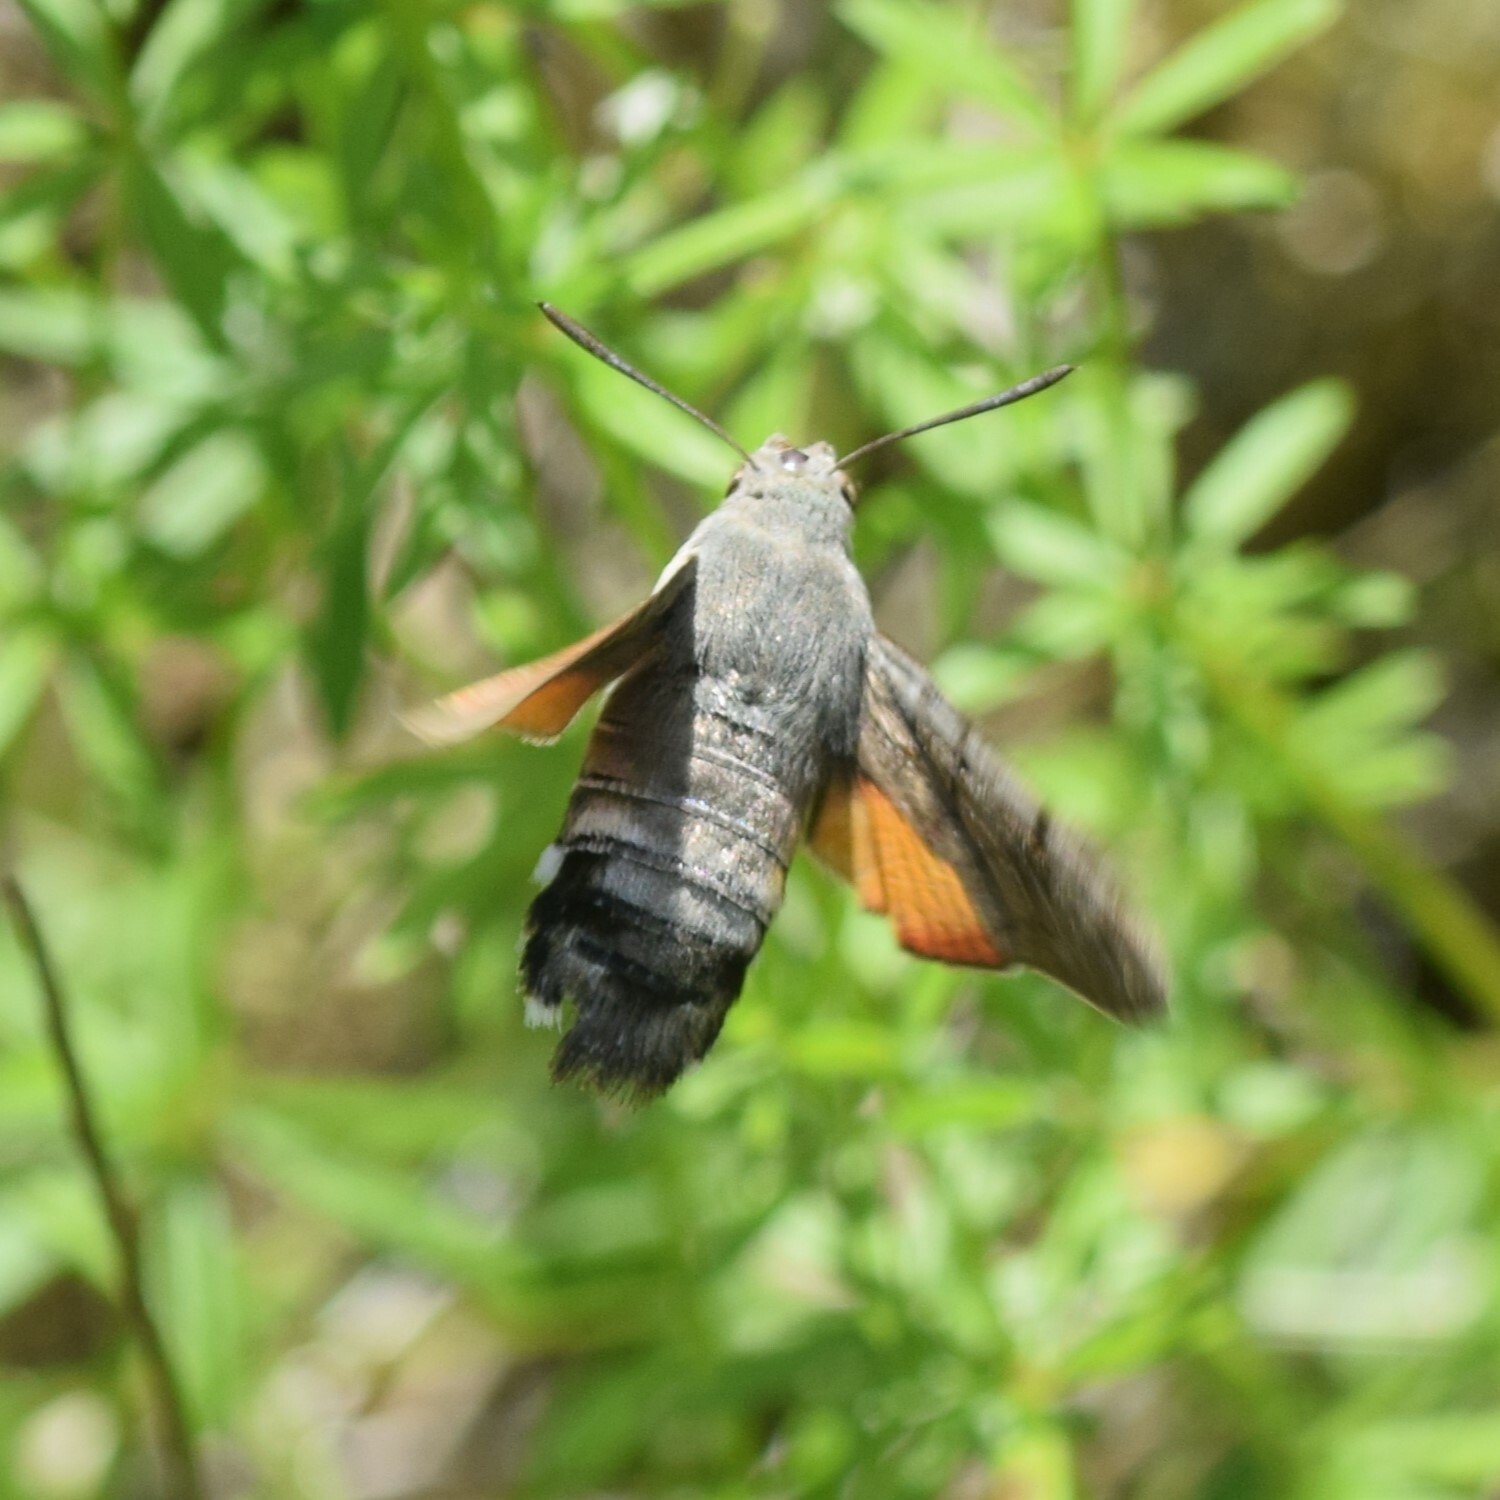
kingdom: Animalia
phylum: Arthropoda
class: Insecta
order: Lepidoptera
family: Sphingidae
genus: Macroglossum
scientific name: Macroglossum stellatarum
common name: Humming-bird hawk-moth
